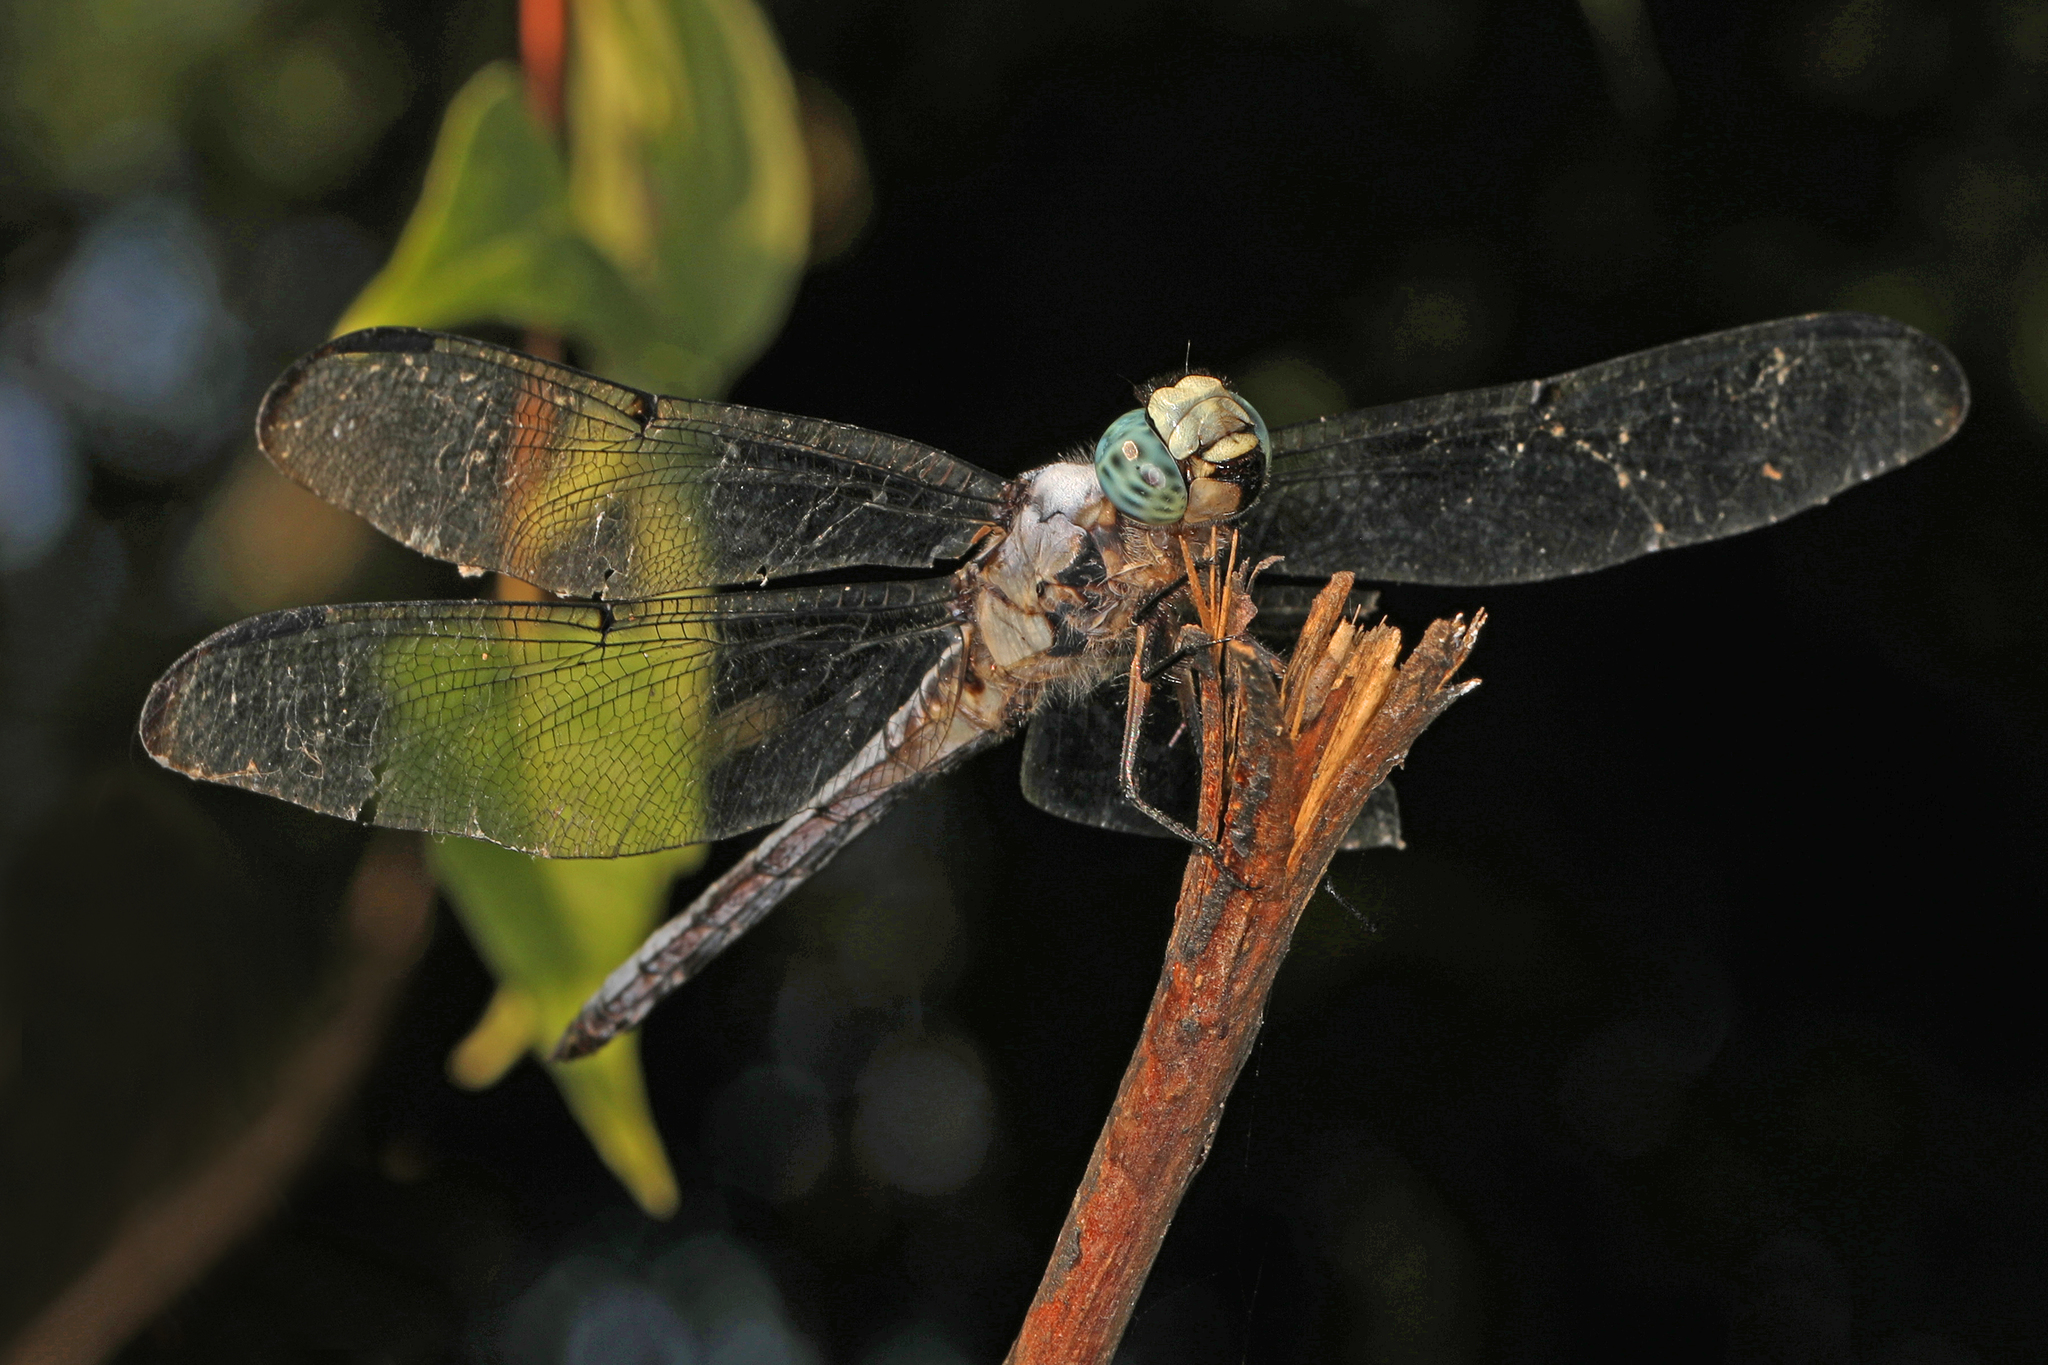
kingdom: Animalia
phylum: Arthropoda
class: Insecta
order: Odonata
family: Libellulidae
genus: Libellula
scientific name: Libellula vibrans
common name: Great blue skimmer
